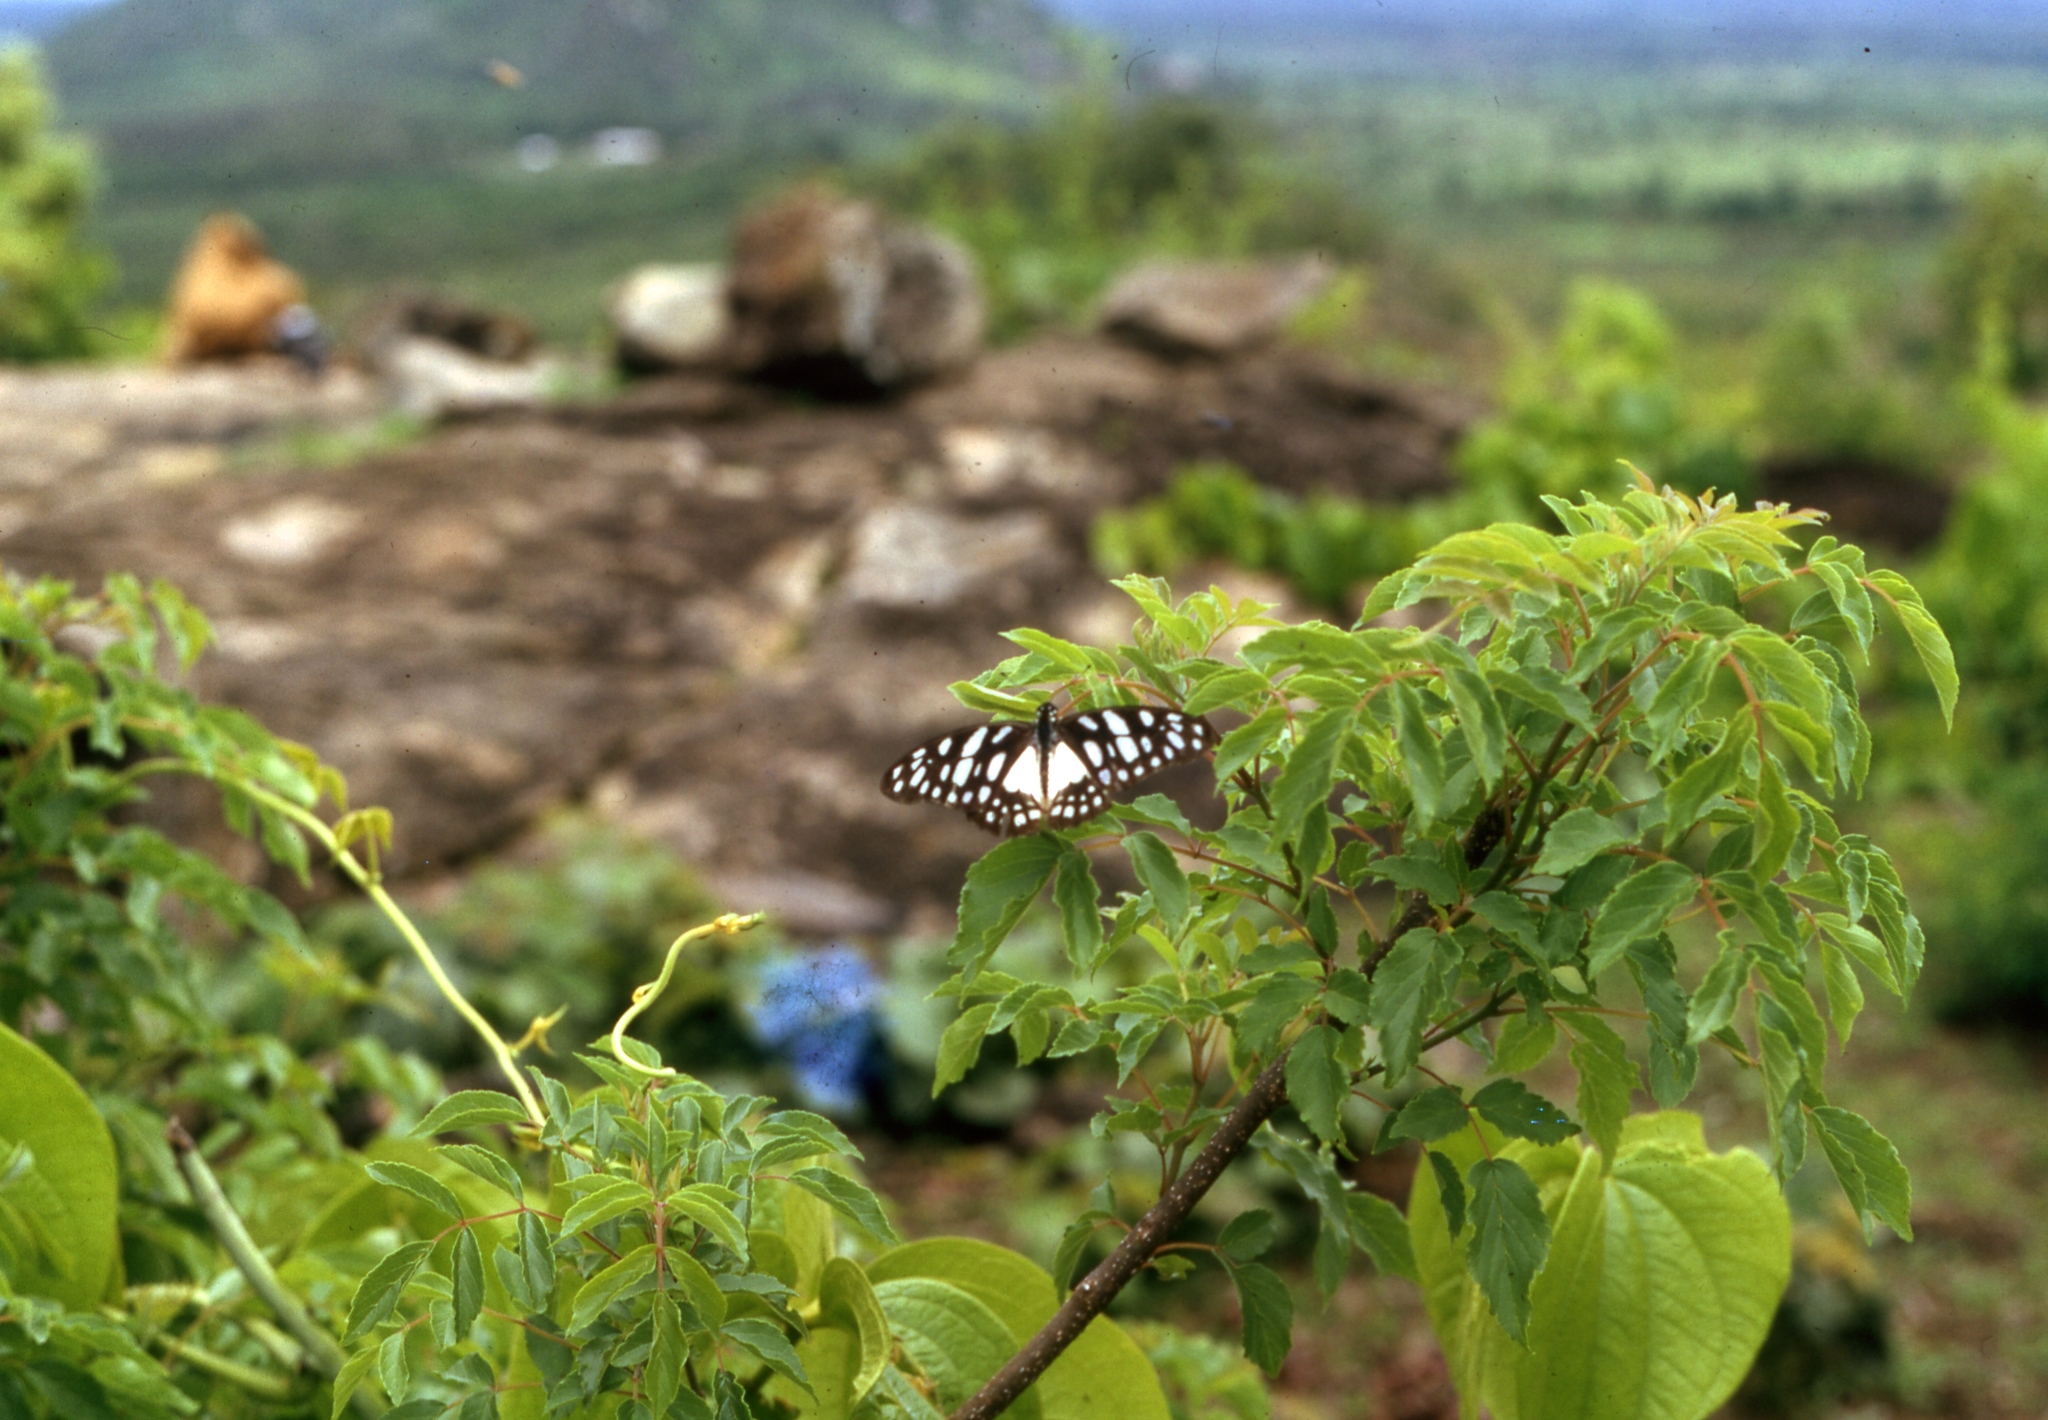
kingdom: Animalia
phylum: Arthropoda
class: Insecta
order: Lepidoptera
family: Papilionidae
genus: Graphium
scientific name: Graphium leonidas
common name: Common graphium
